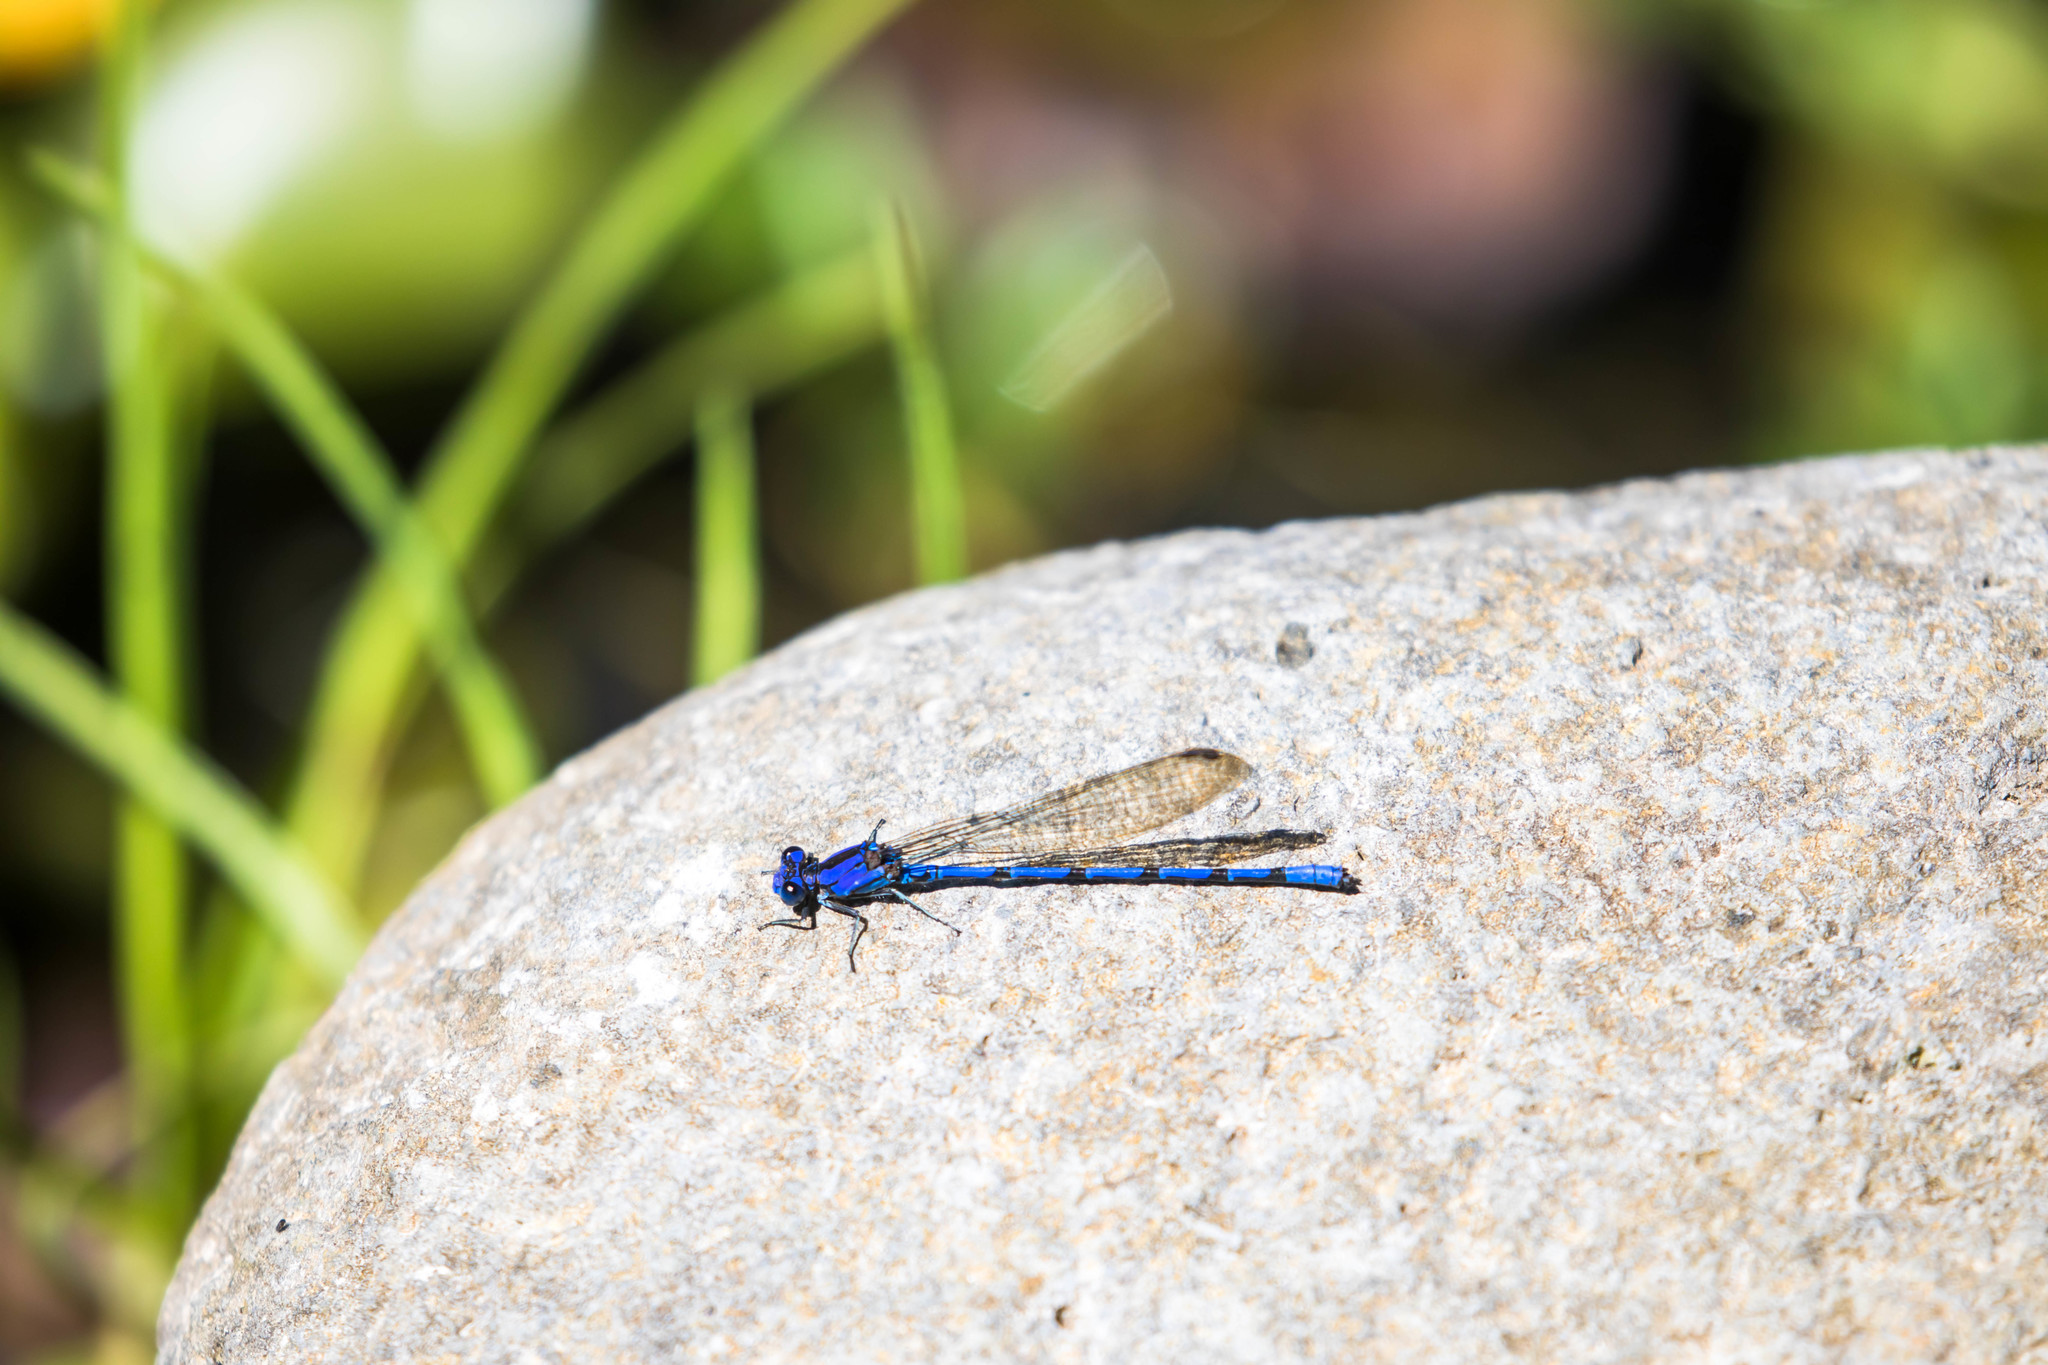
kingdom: Animalia
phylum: Arthropoda
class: Insecta
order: Odonata
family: Coenagrionidae
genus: Argia
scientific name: Argia elongata
